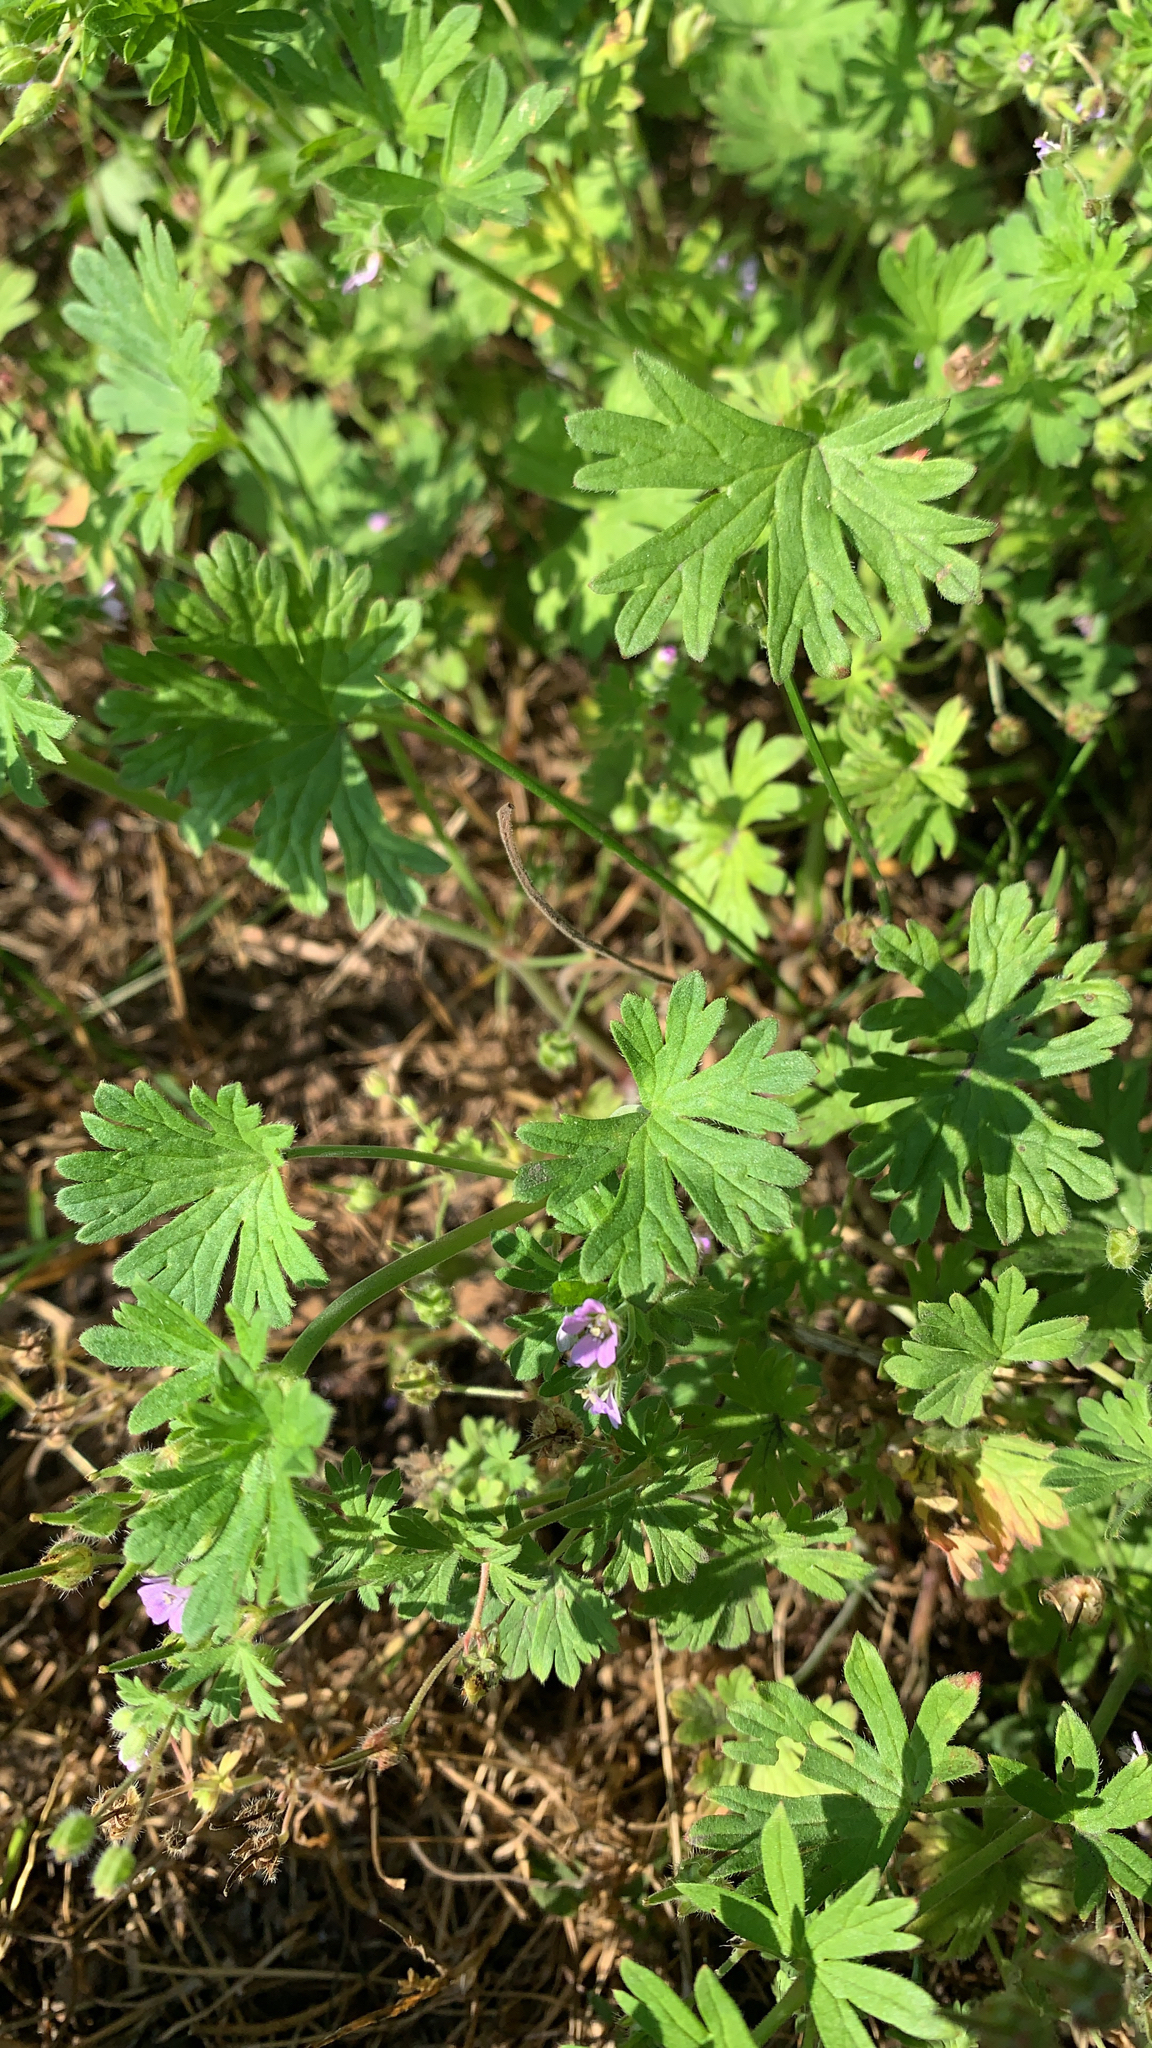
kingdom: Plantae
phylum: Tracheophyta
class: Magnoliopsida
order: Geraniales
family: Geraniaceae
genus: Geranium
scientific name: Geranium pusillum
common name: Small geranium
